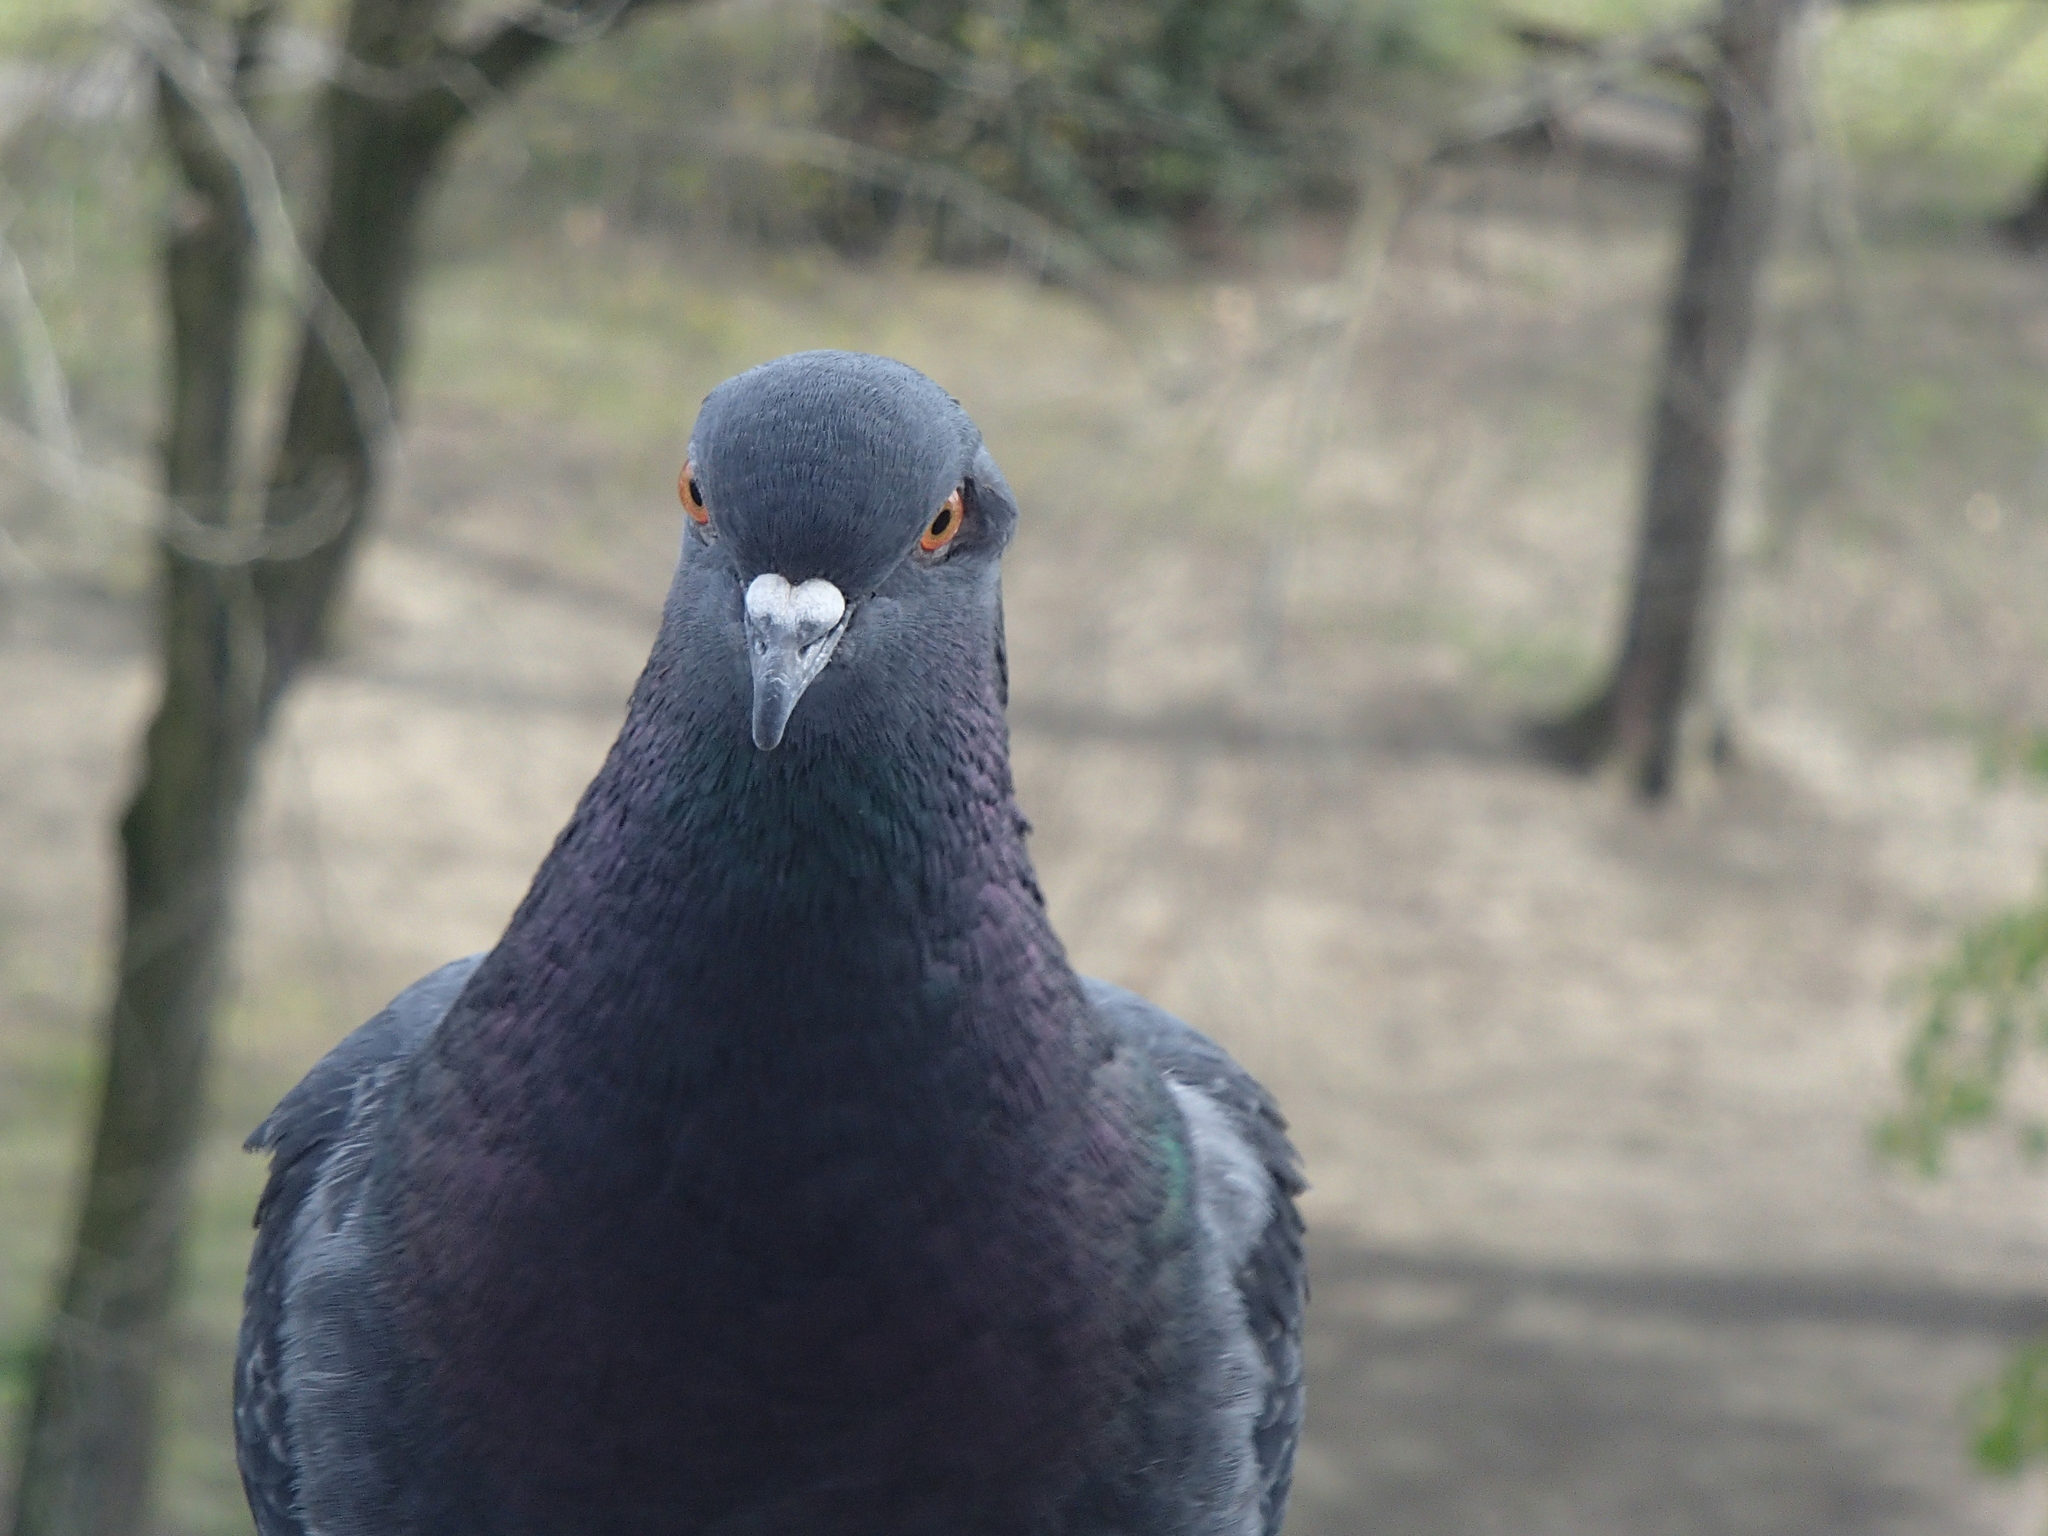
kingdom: Animalia
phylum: Chordata
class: Aves
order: Columbiformes
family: Columbidae
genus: Columba
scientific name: Columba livia
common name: Rock pigeon
